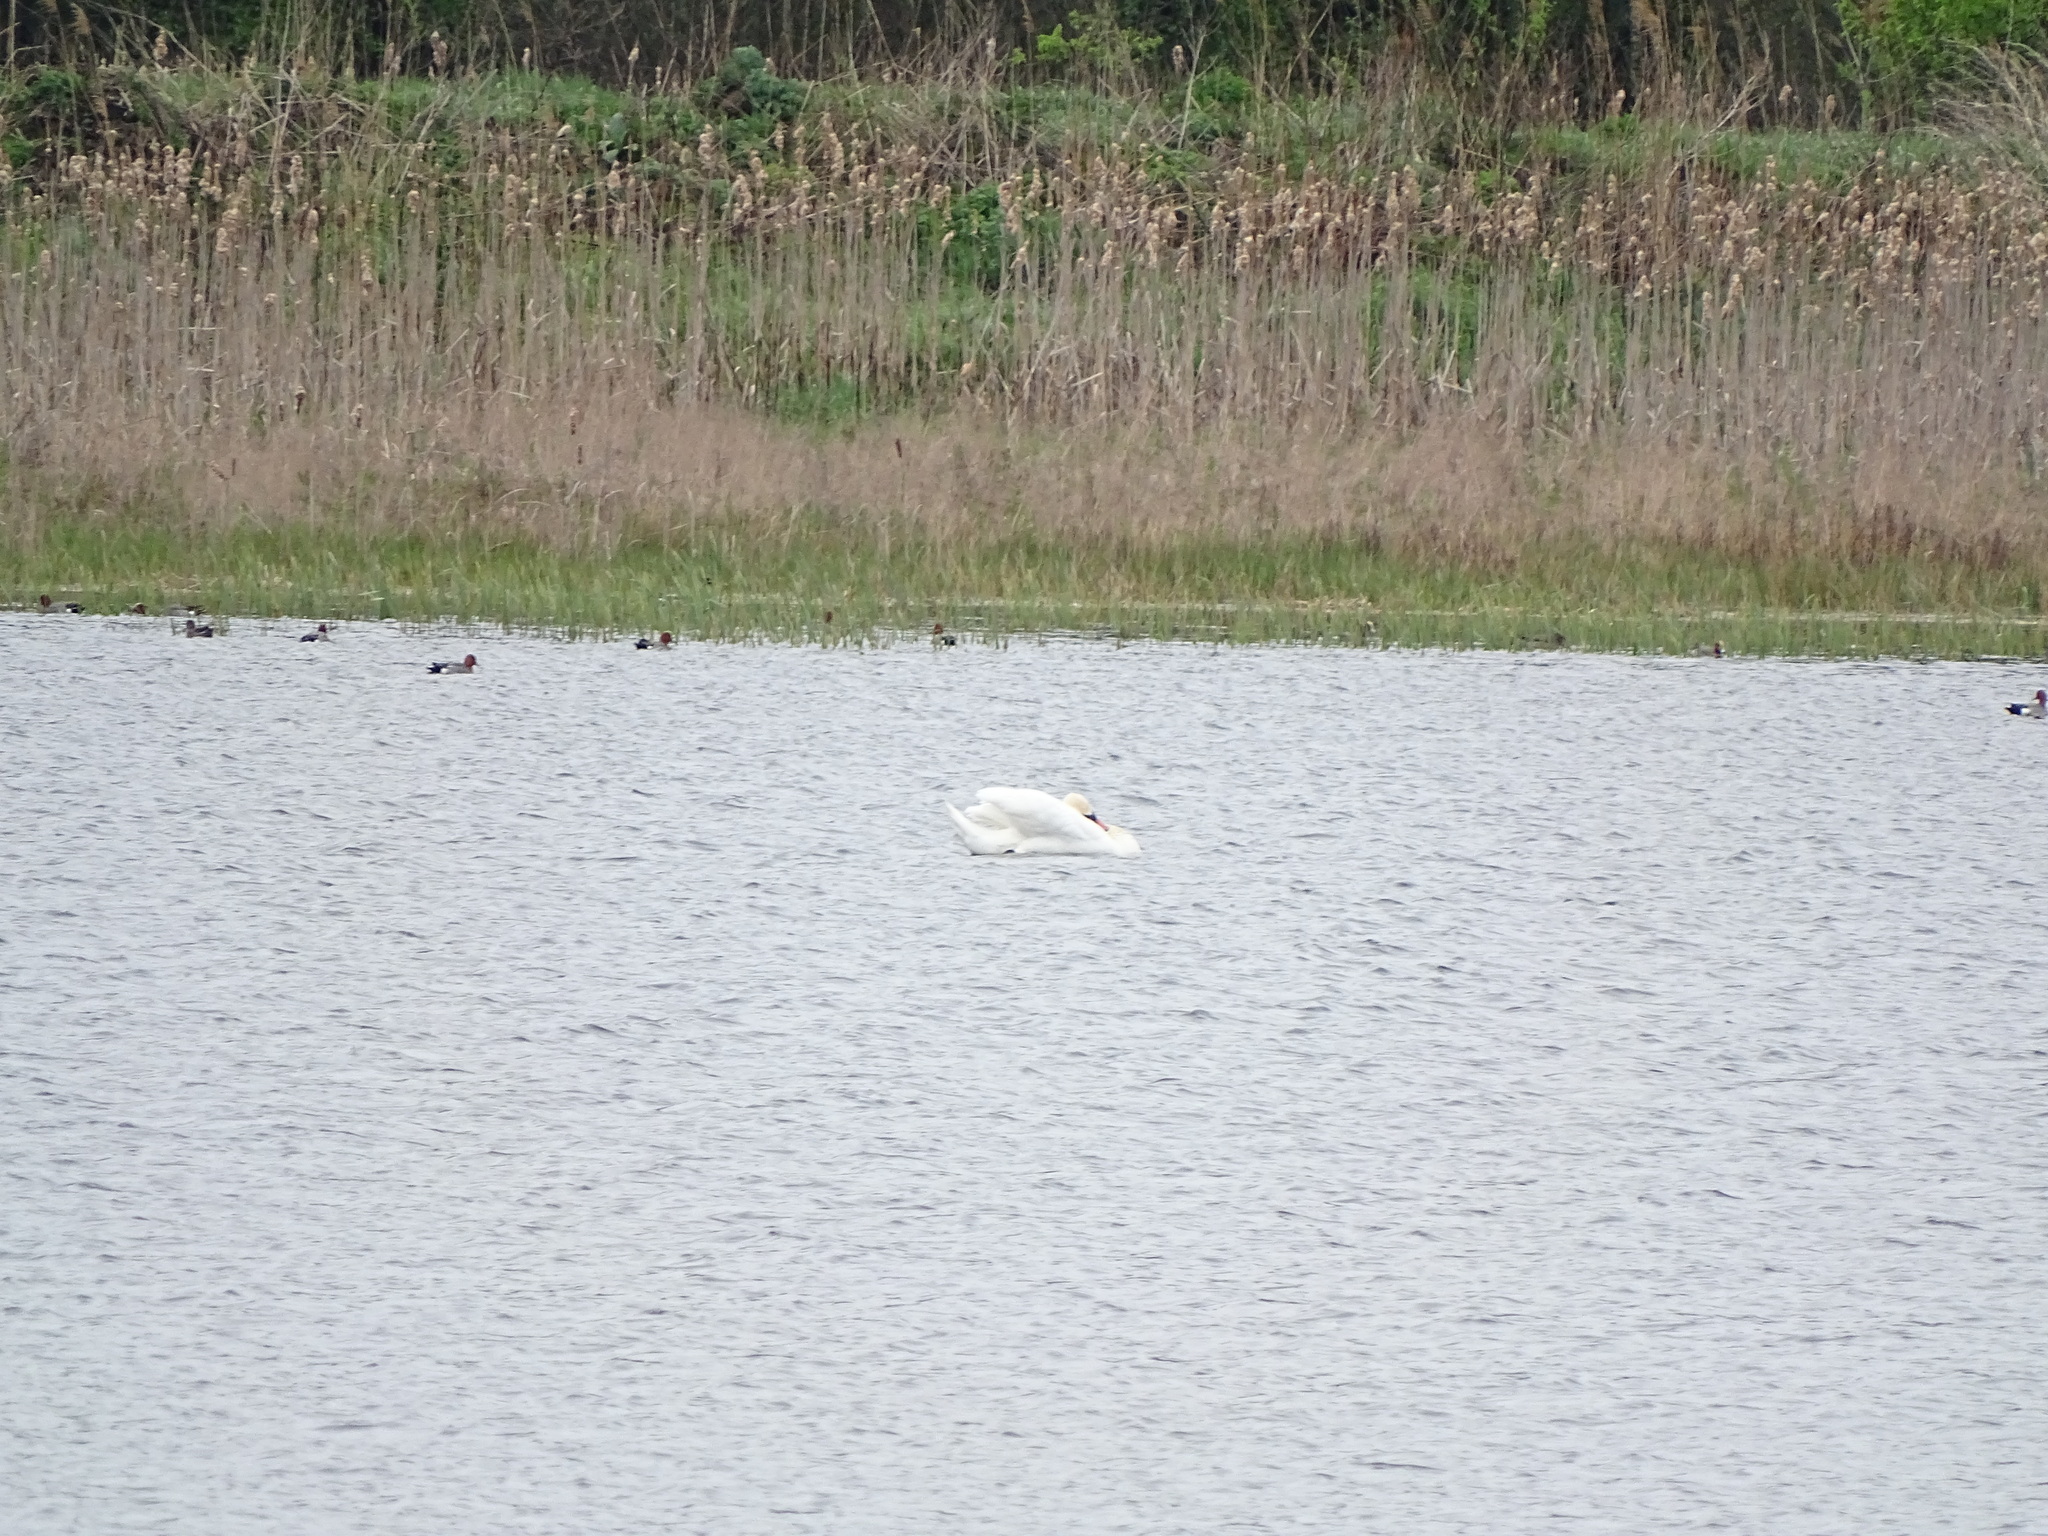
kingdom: Animalia
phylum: Chordata
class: Aves
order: Anseriformes
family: Anatidae
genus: Mareca
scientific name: Mareca penelope
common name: Eurasian wigeon
